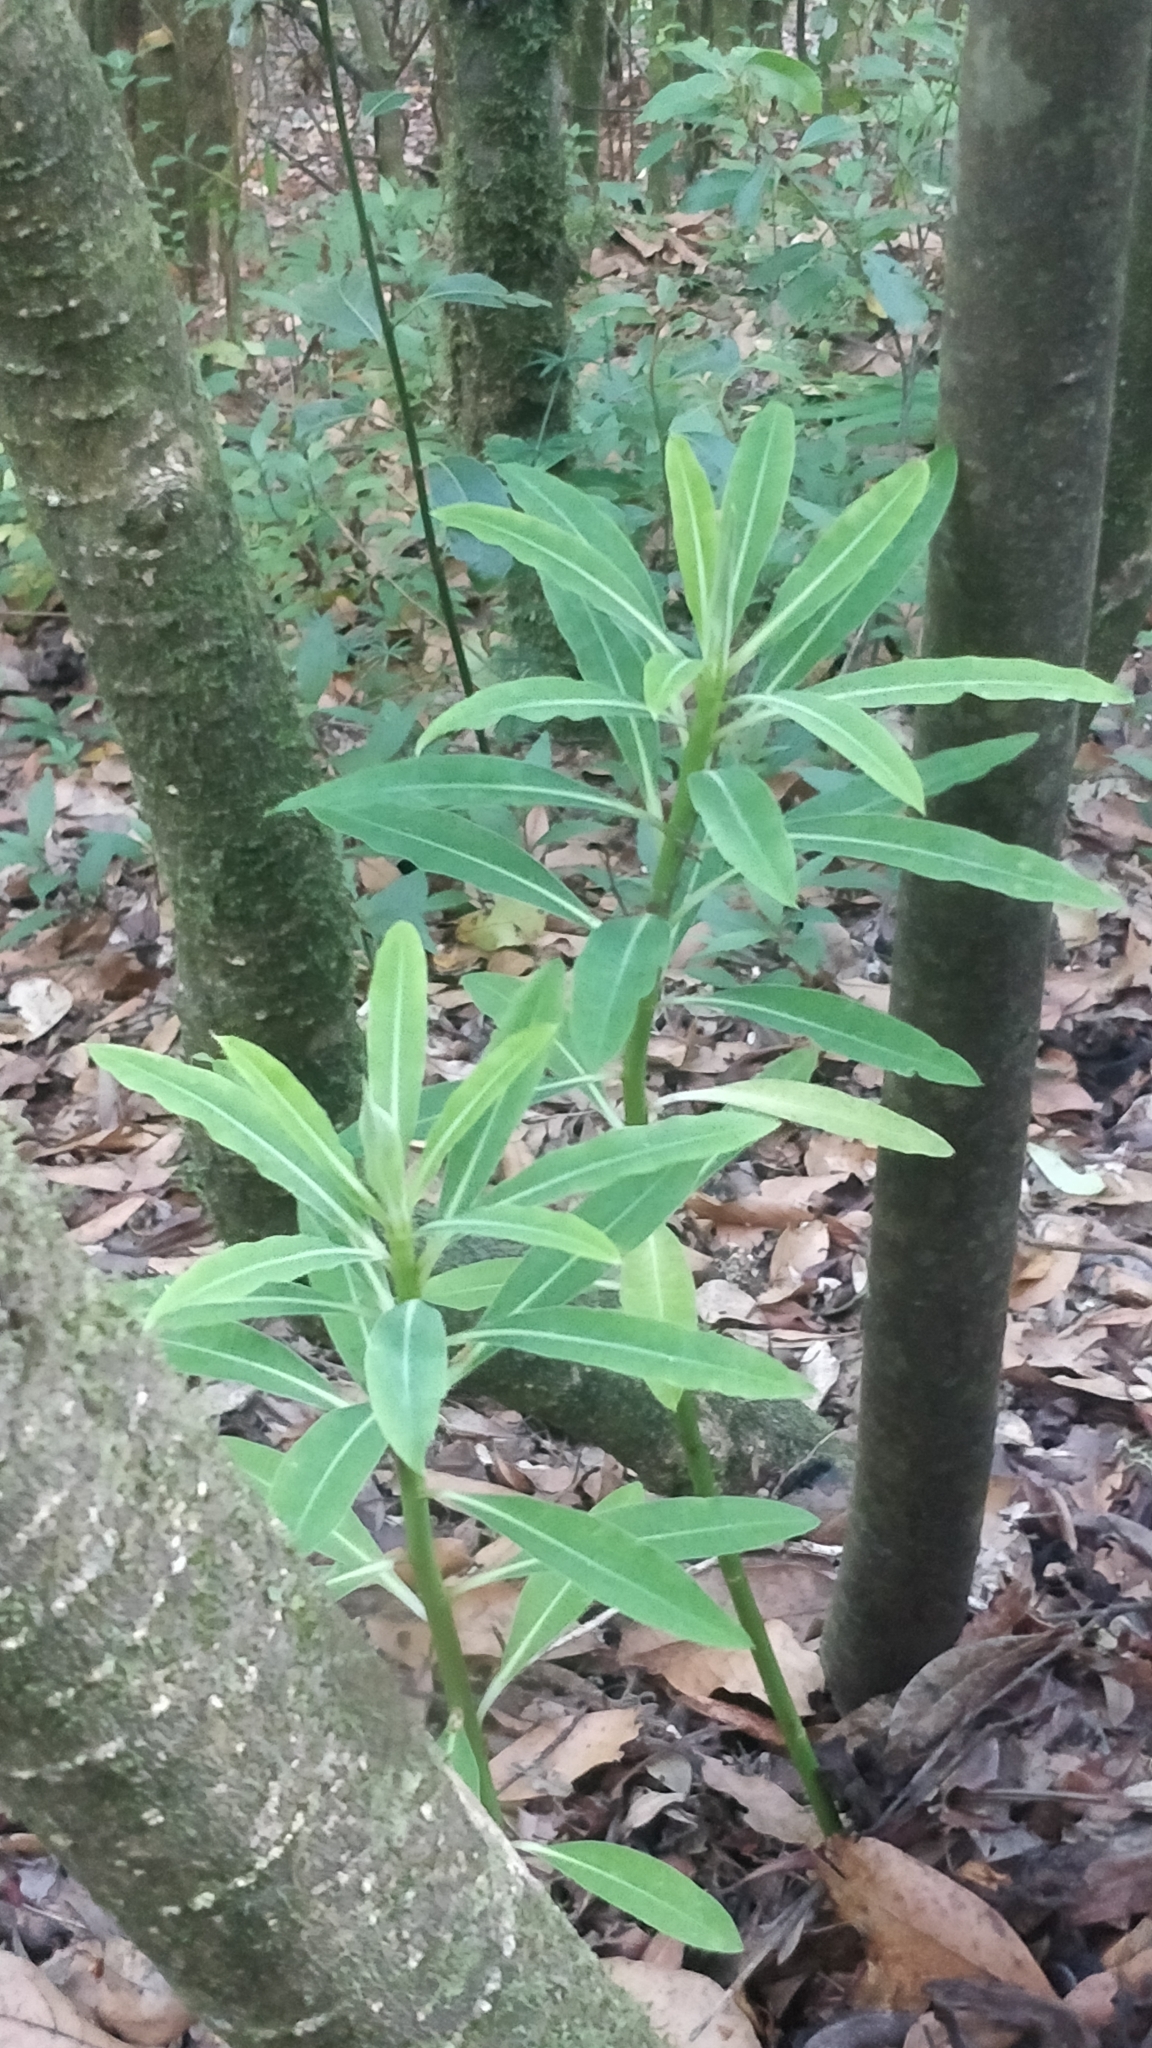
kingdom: Plantae
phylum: Tracheophyta
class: Magnoliopsida
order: Malpighiales
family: Euphorbiaceae
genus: Euphorbia
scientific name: Euphorbia mellifera
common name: Canary spurge
